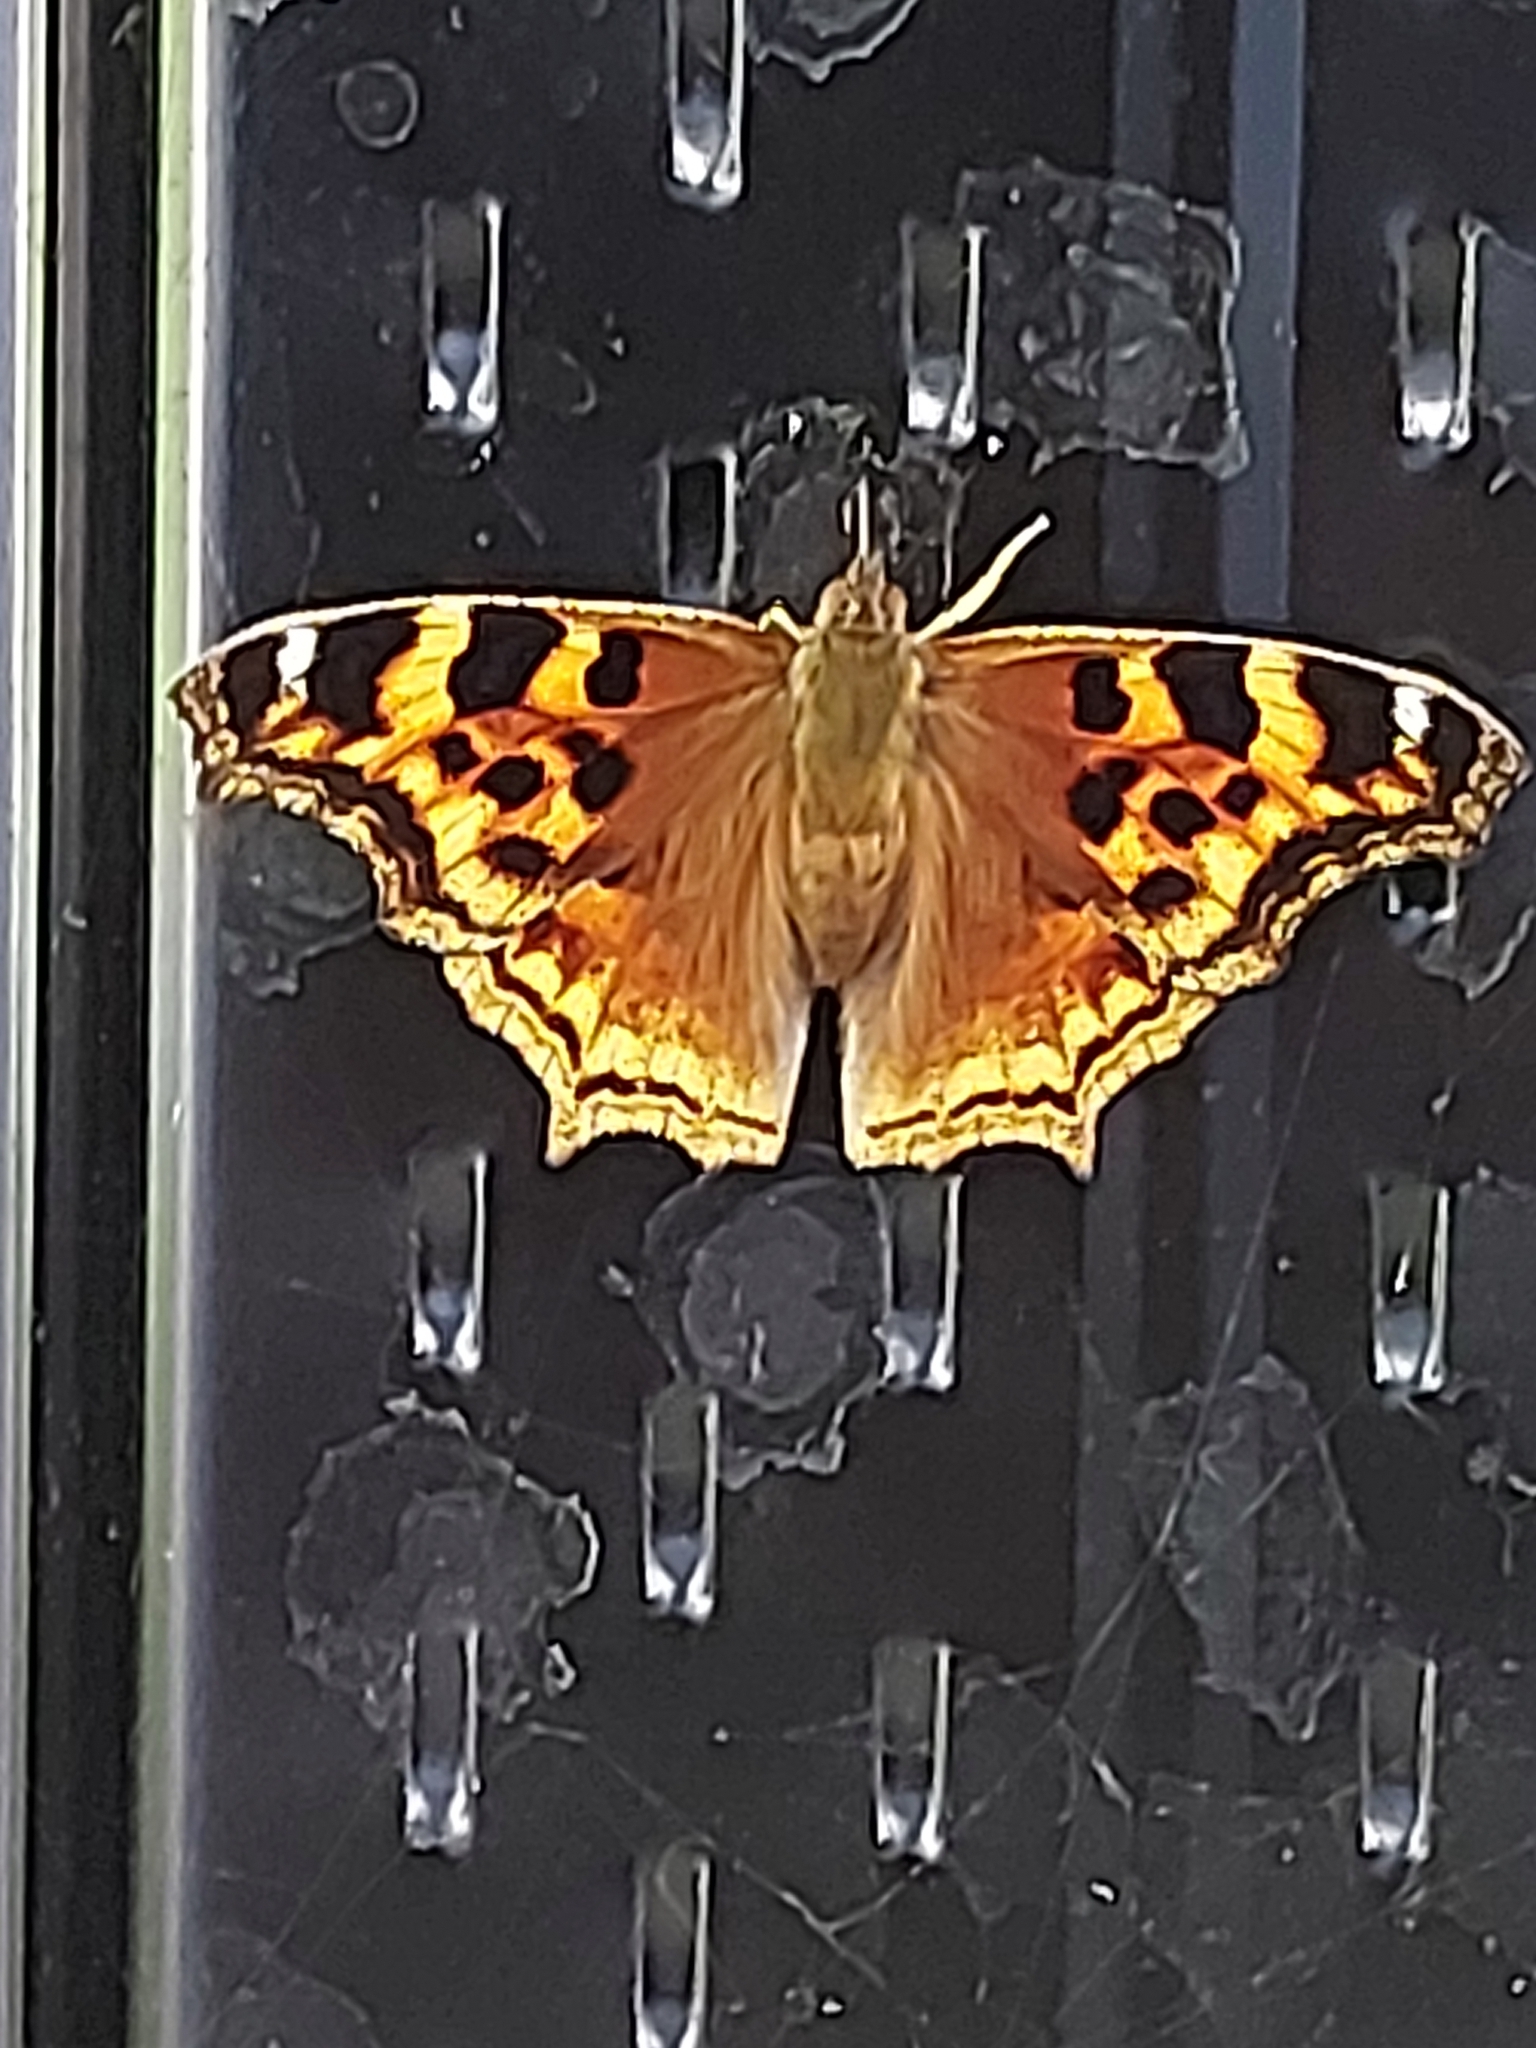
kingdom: Animalia
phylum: Arthropoda
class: Insecta
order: Lepidoptera
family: Nymphalidae
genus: Polygonia
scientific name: Polygonia vaualbum
